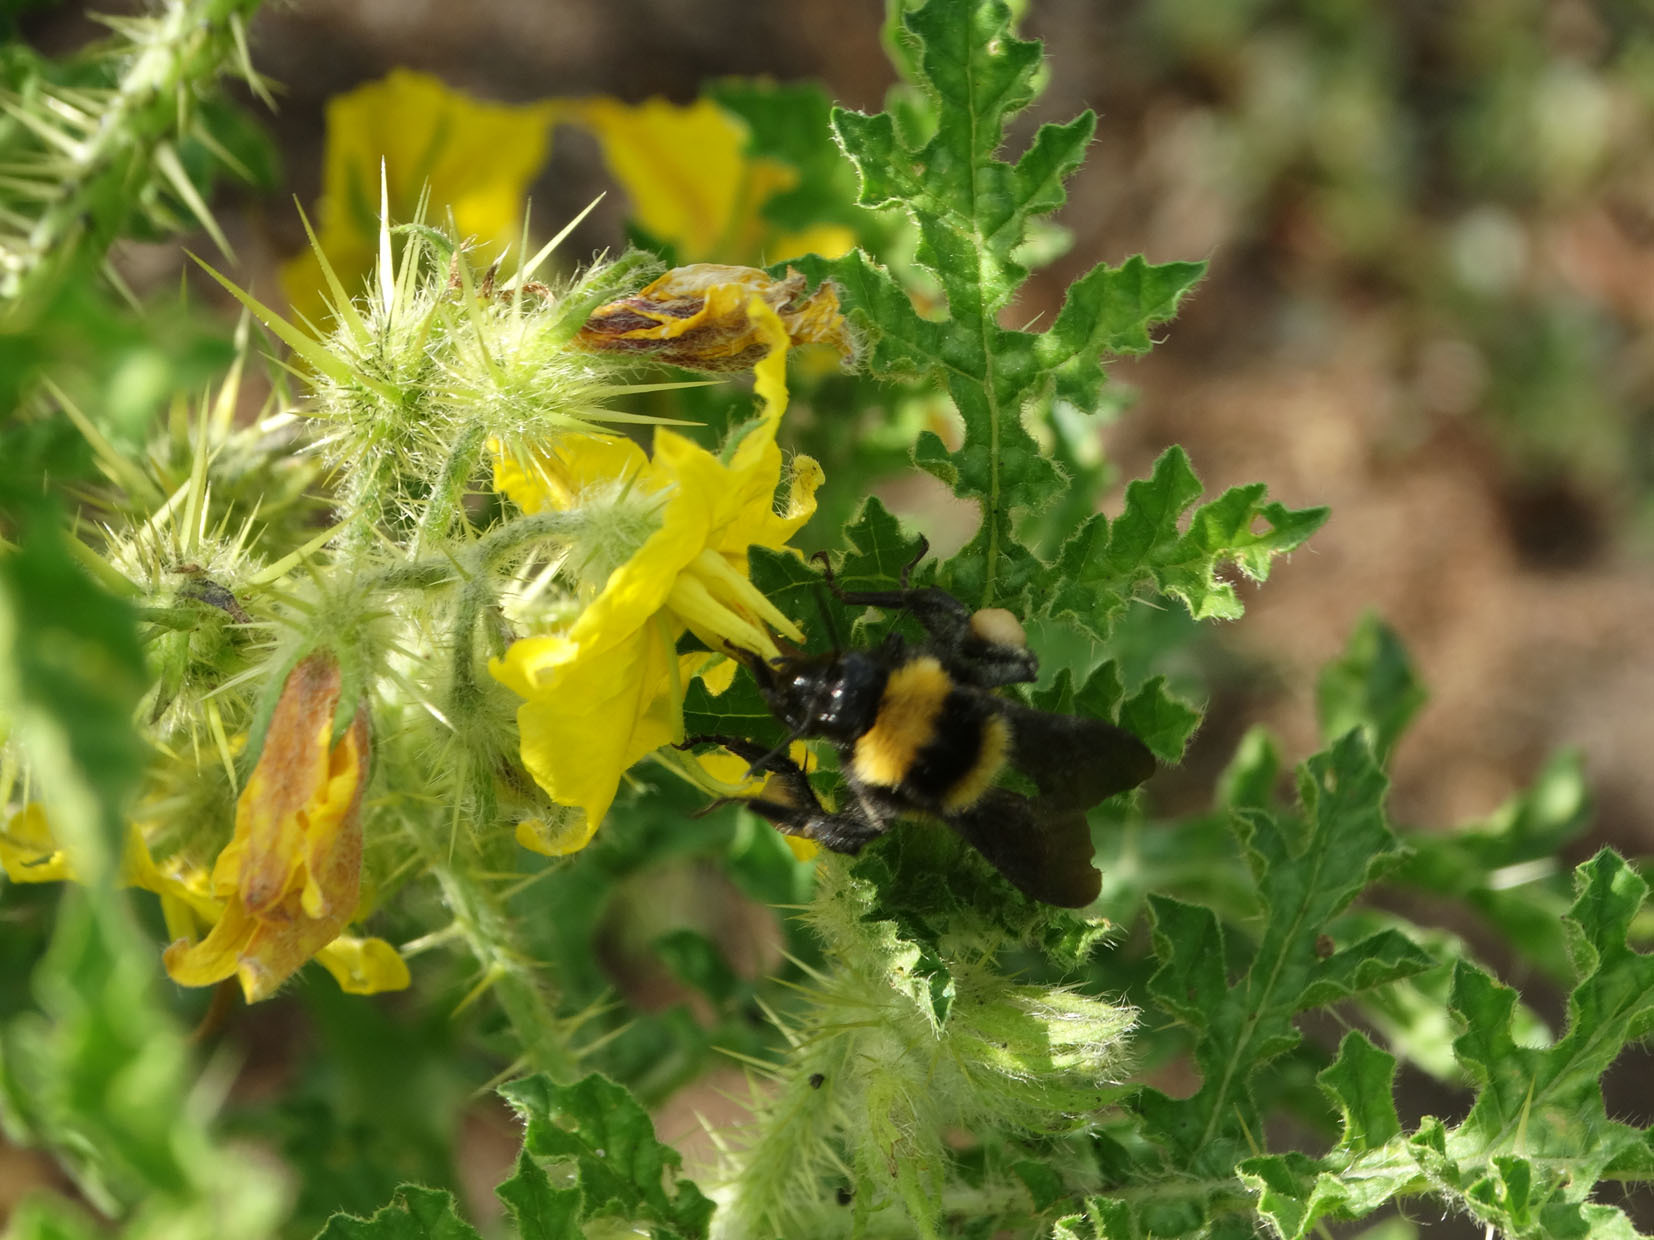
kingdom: Animalia
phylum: Arthropoda
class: Insecta
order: Hymenoptera
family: Apidae
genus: Bombus
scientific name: Bombus sonorus
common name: Sonoran bumble bee
